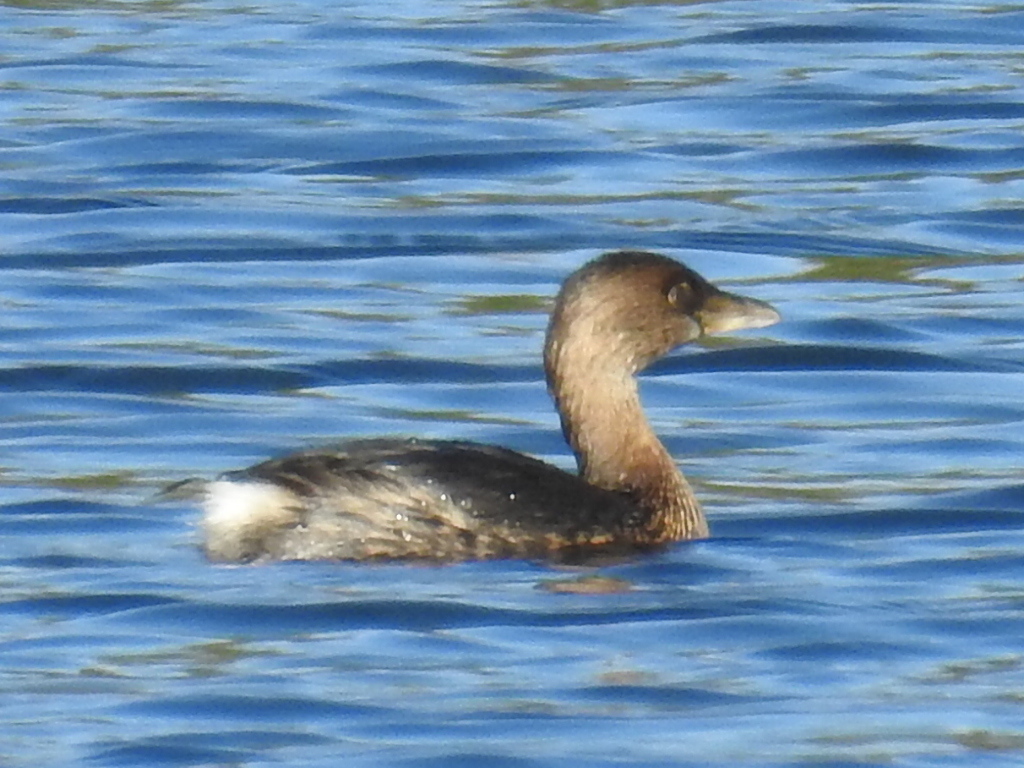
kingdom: Animalia
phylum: Chordata
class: Aves
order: Podicipediformes
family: Podicipedidae
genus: Podilymbus
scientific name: Podilymbus podiceps
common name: Pied-billed grebe
